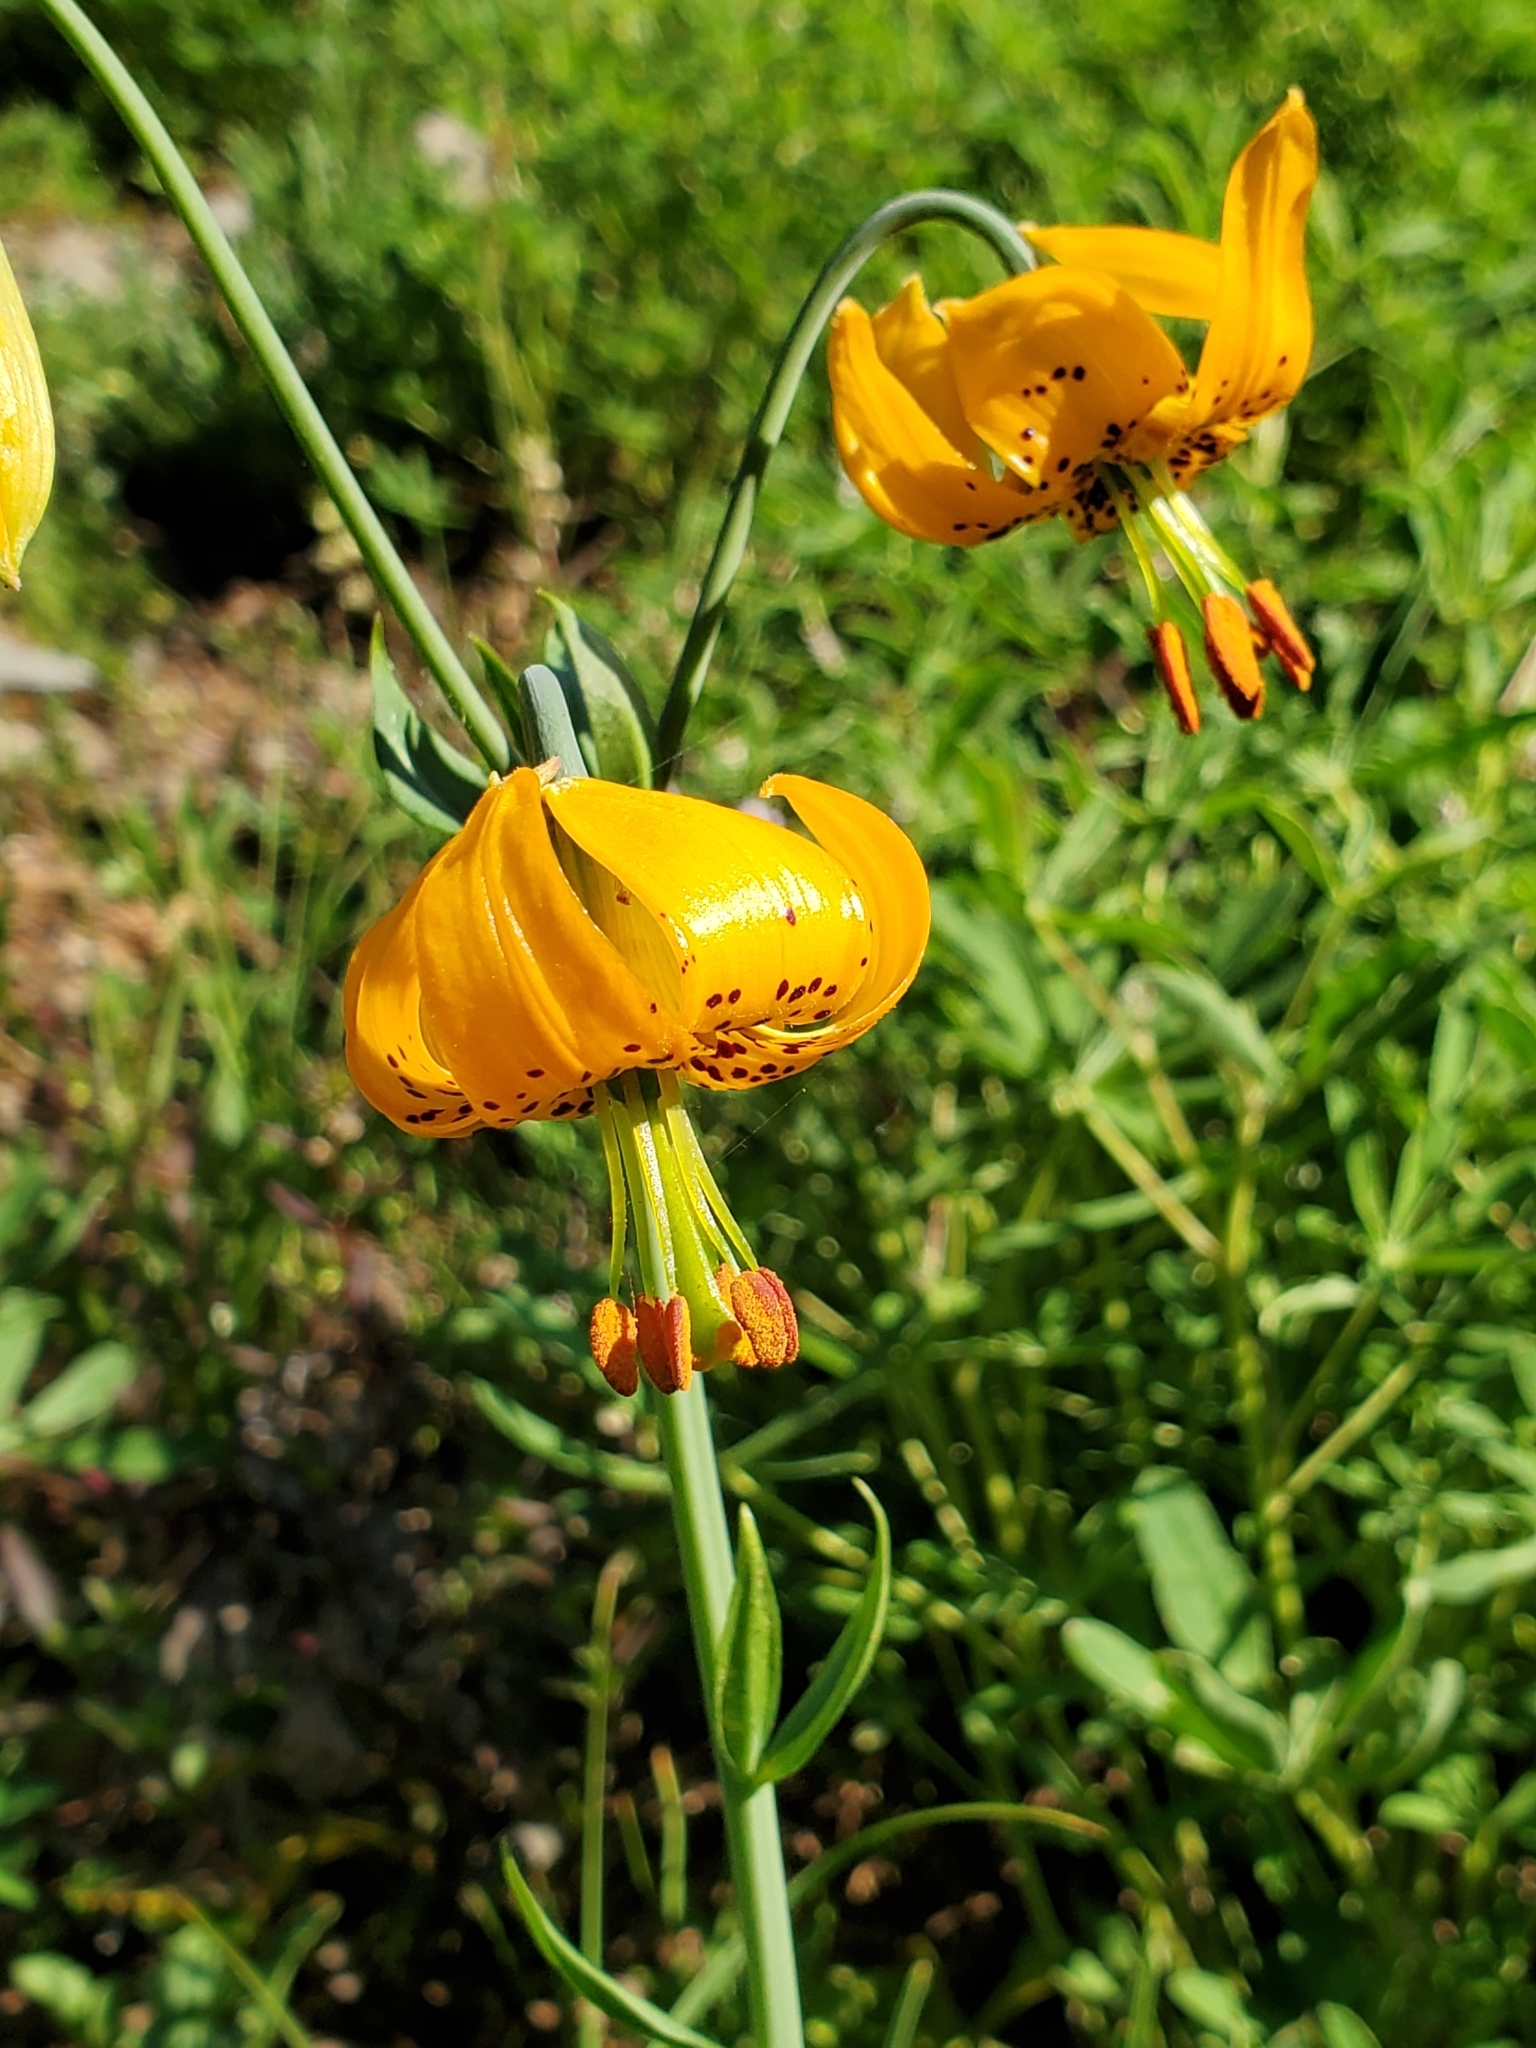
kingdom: Plantae
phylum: Tracheophyta
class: Liliopsida
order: Liliales
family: Liliaceae
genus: Lilium
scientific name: Lilium columbianum
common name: Columbia lily
